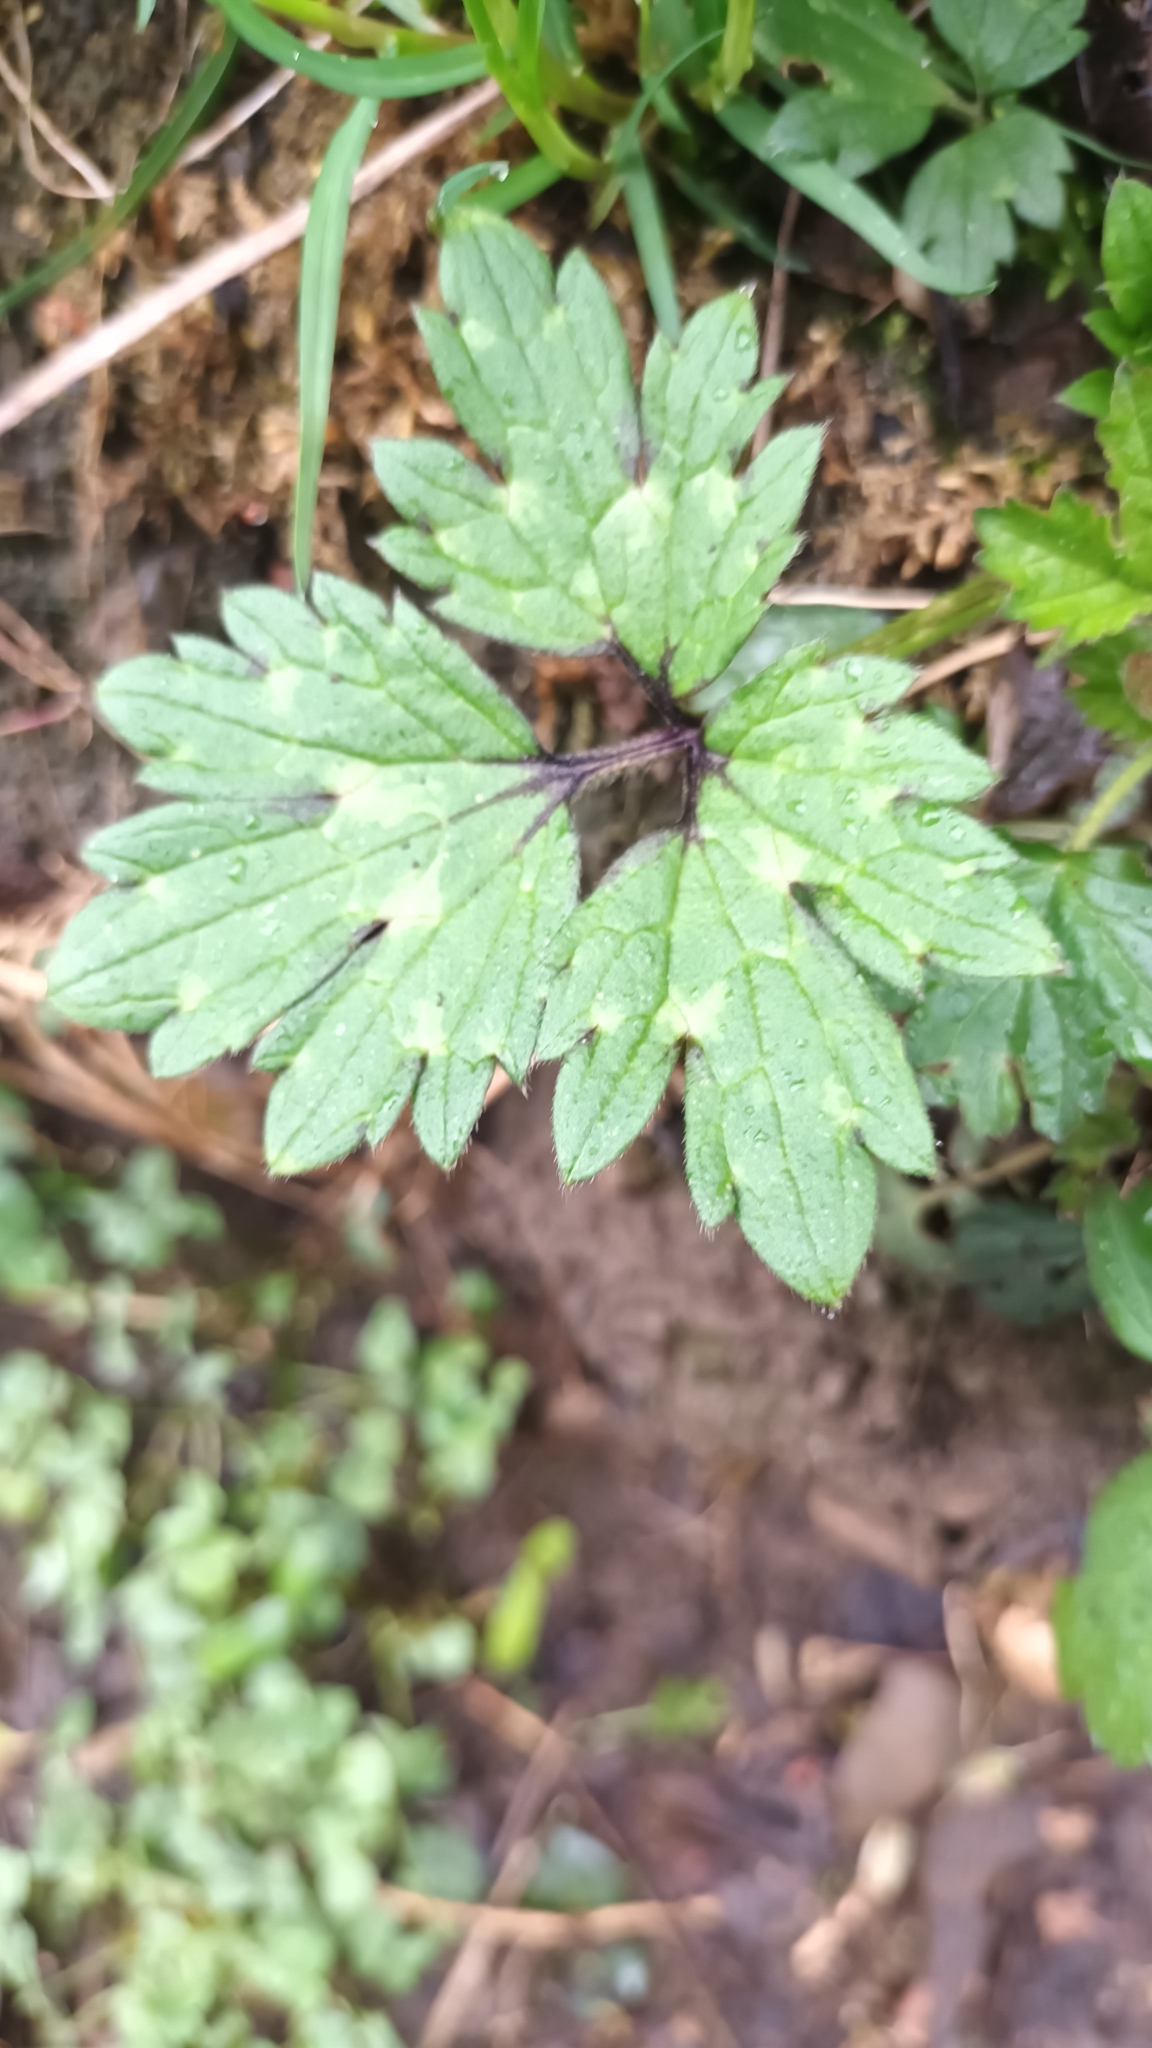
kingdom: Plantae
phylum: Tracheophyta
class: Magnoliopsida
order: Ranunculales
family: Ranunculaceae
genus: Ranunculus
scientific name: Ranunculus repens
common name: Creeping buttercup
